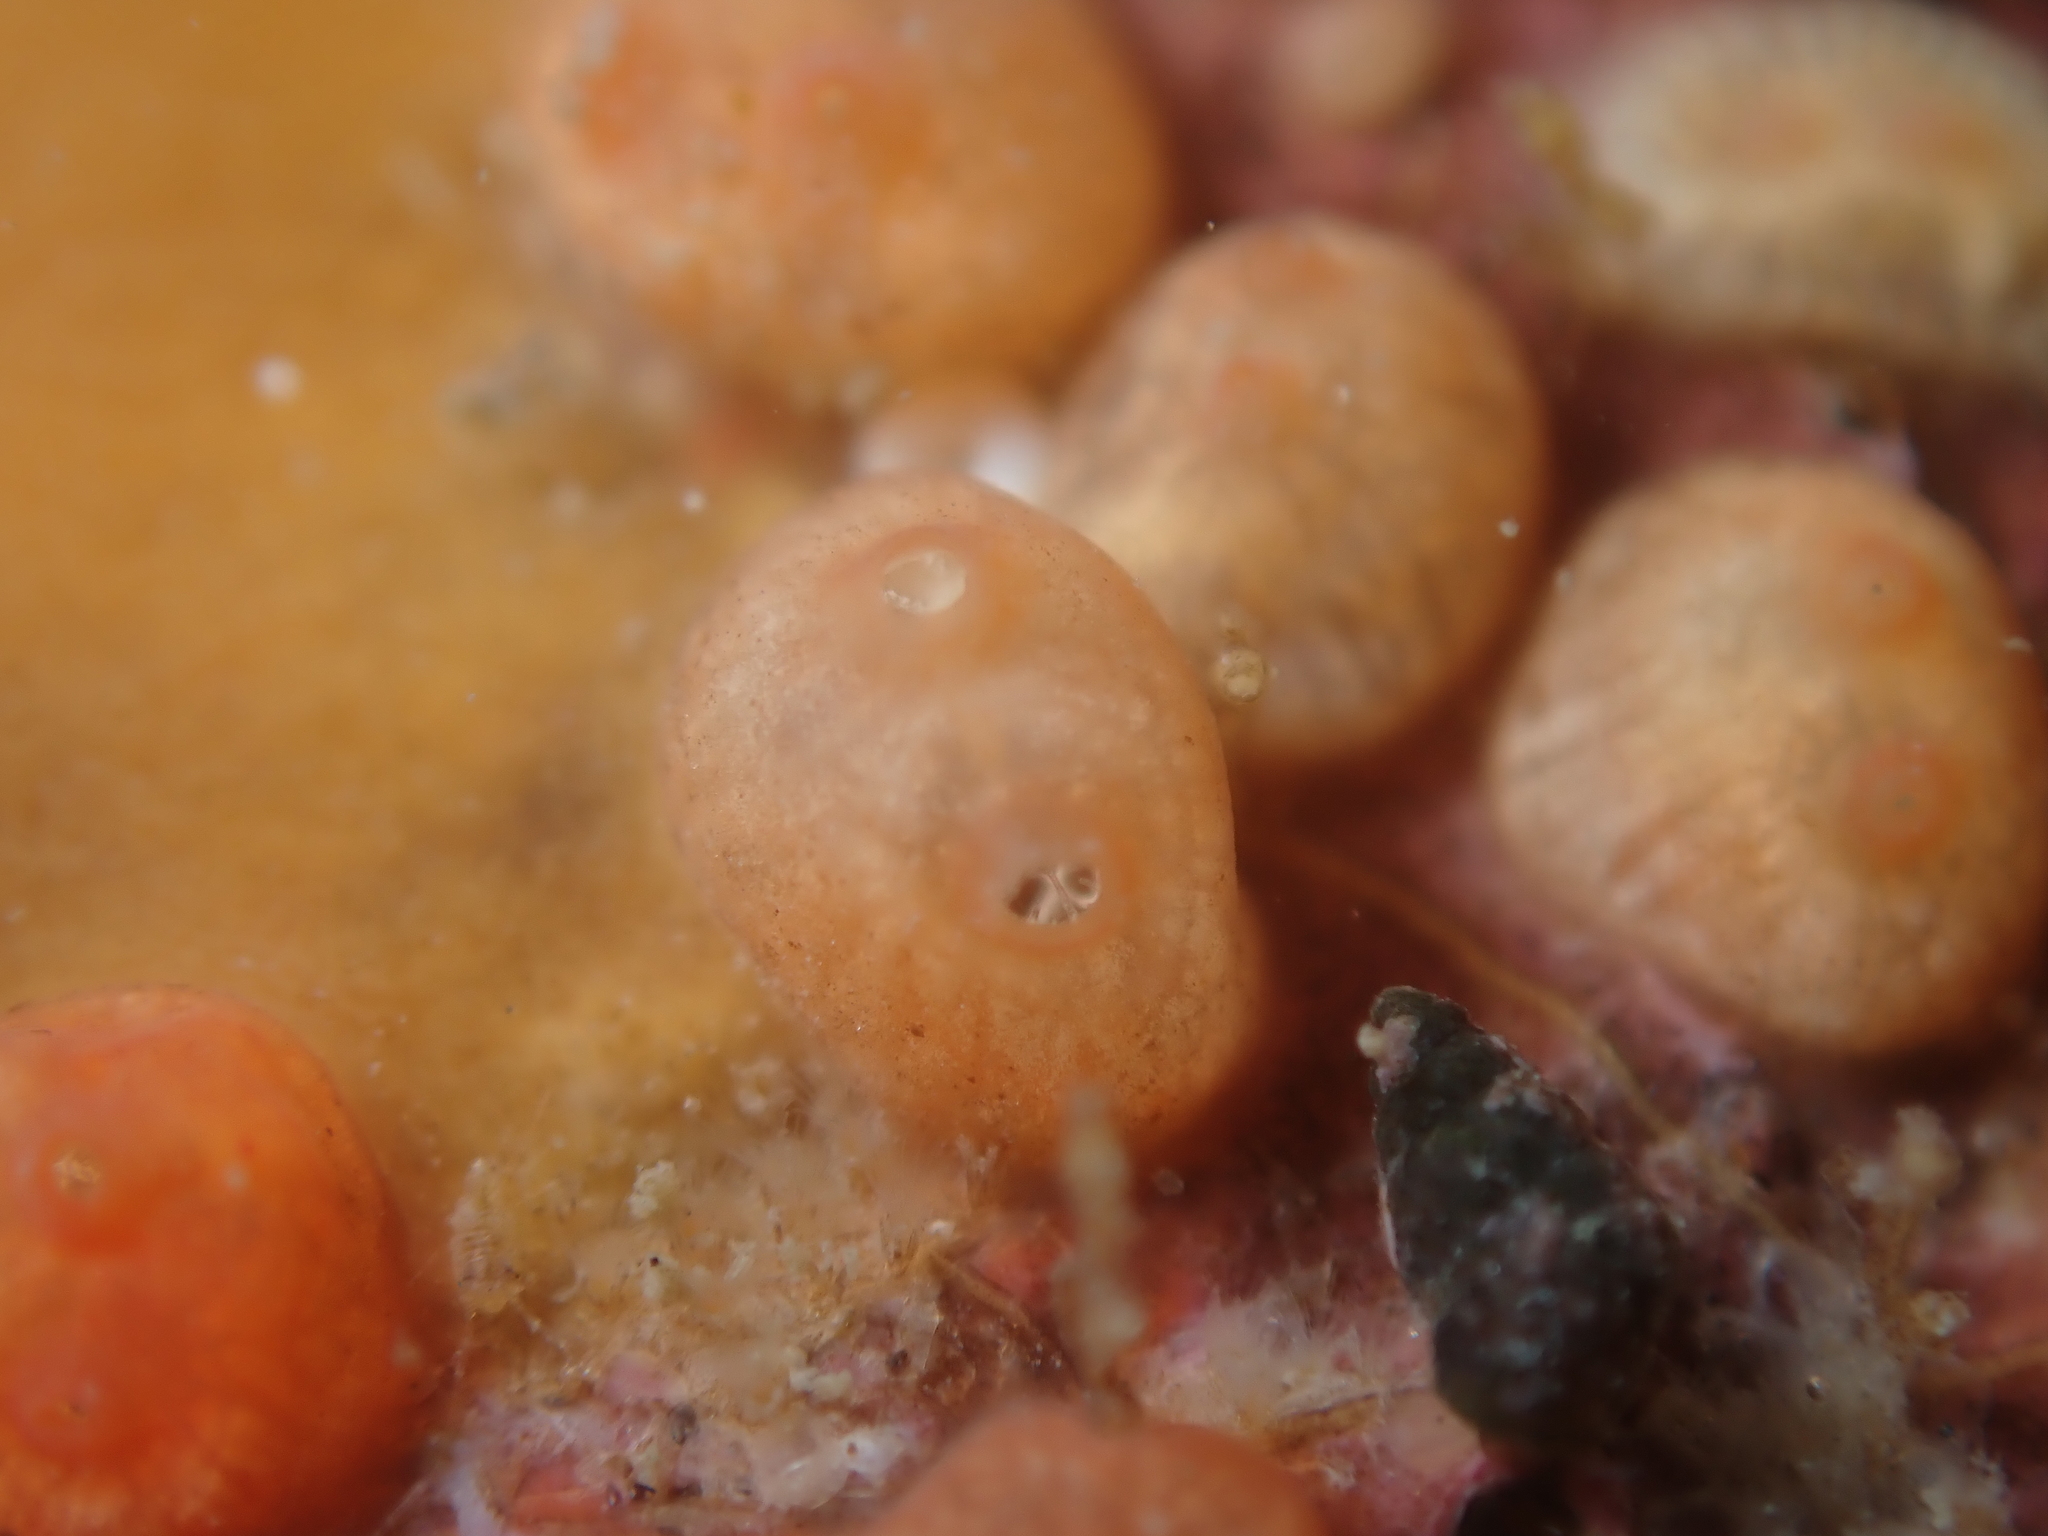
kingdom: Animalia
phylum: Chordata
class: Ascidiacea
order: Stolidobranchia
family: Styelidae
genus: Metandrocarpa
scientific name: Metandrocarpa protostigmatica
